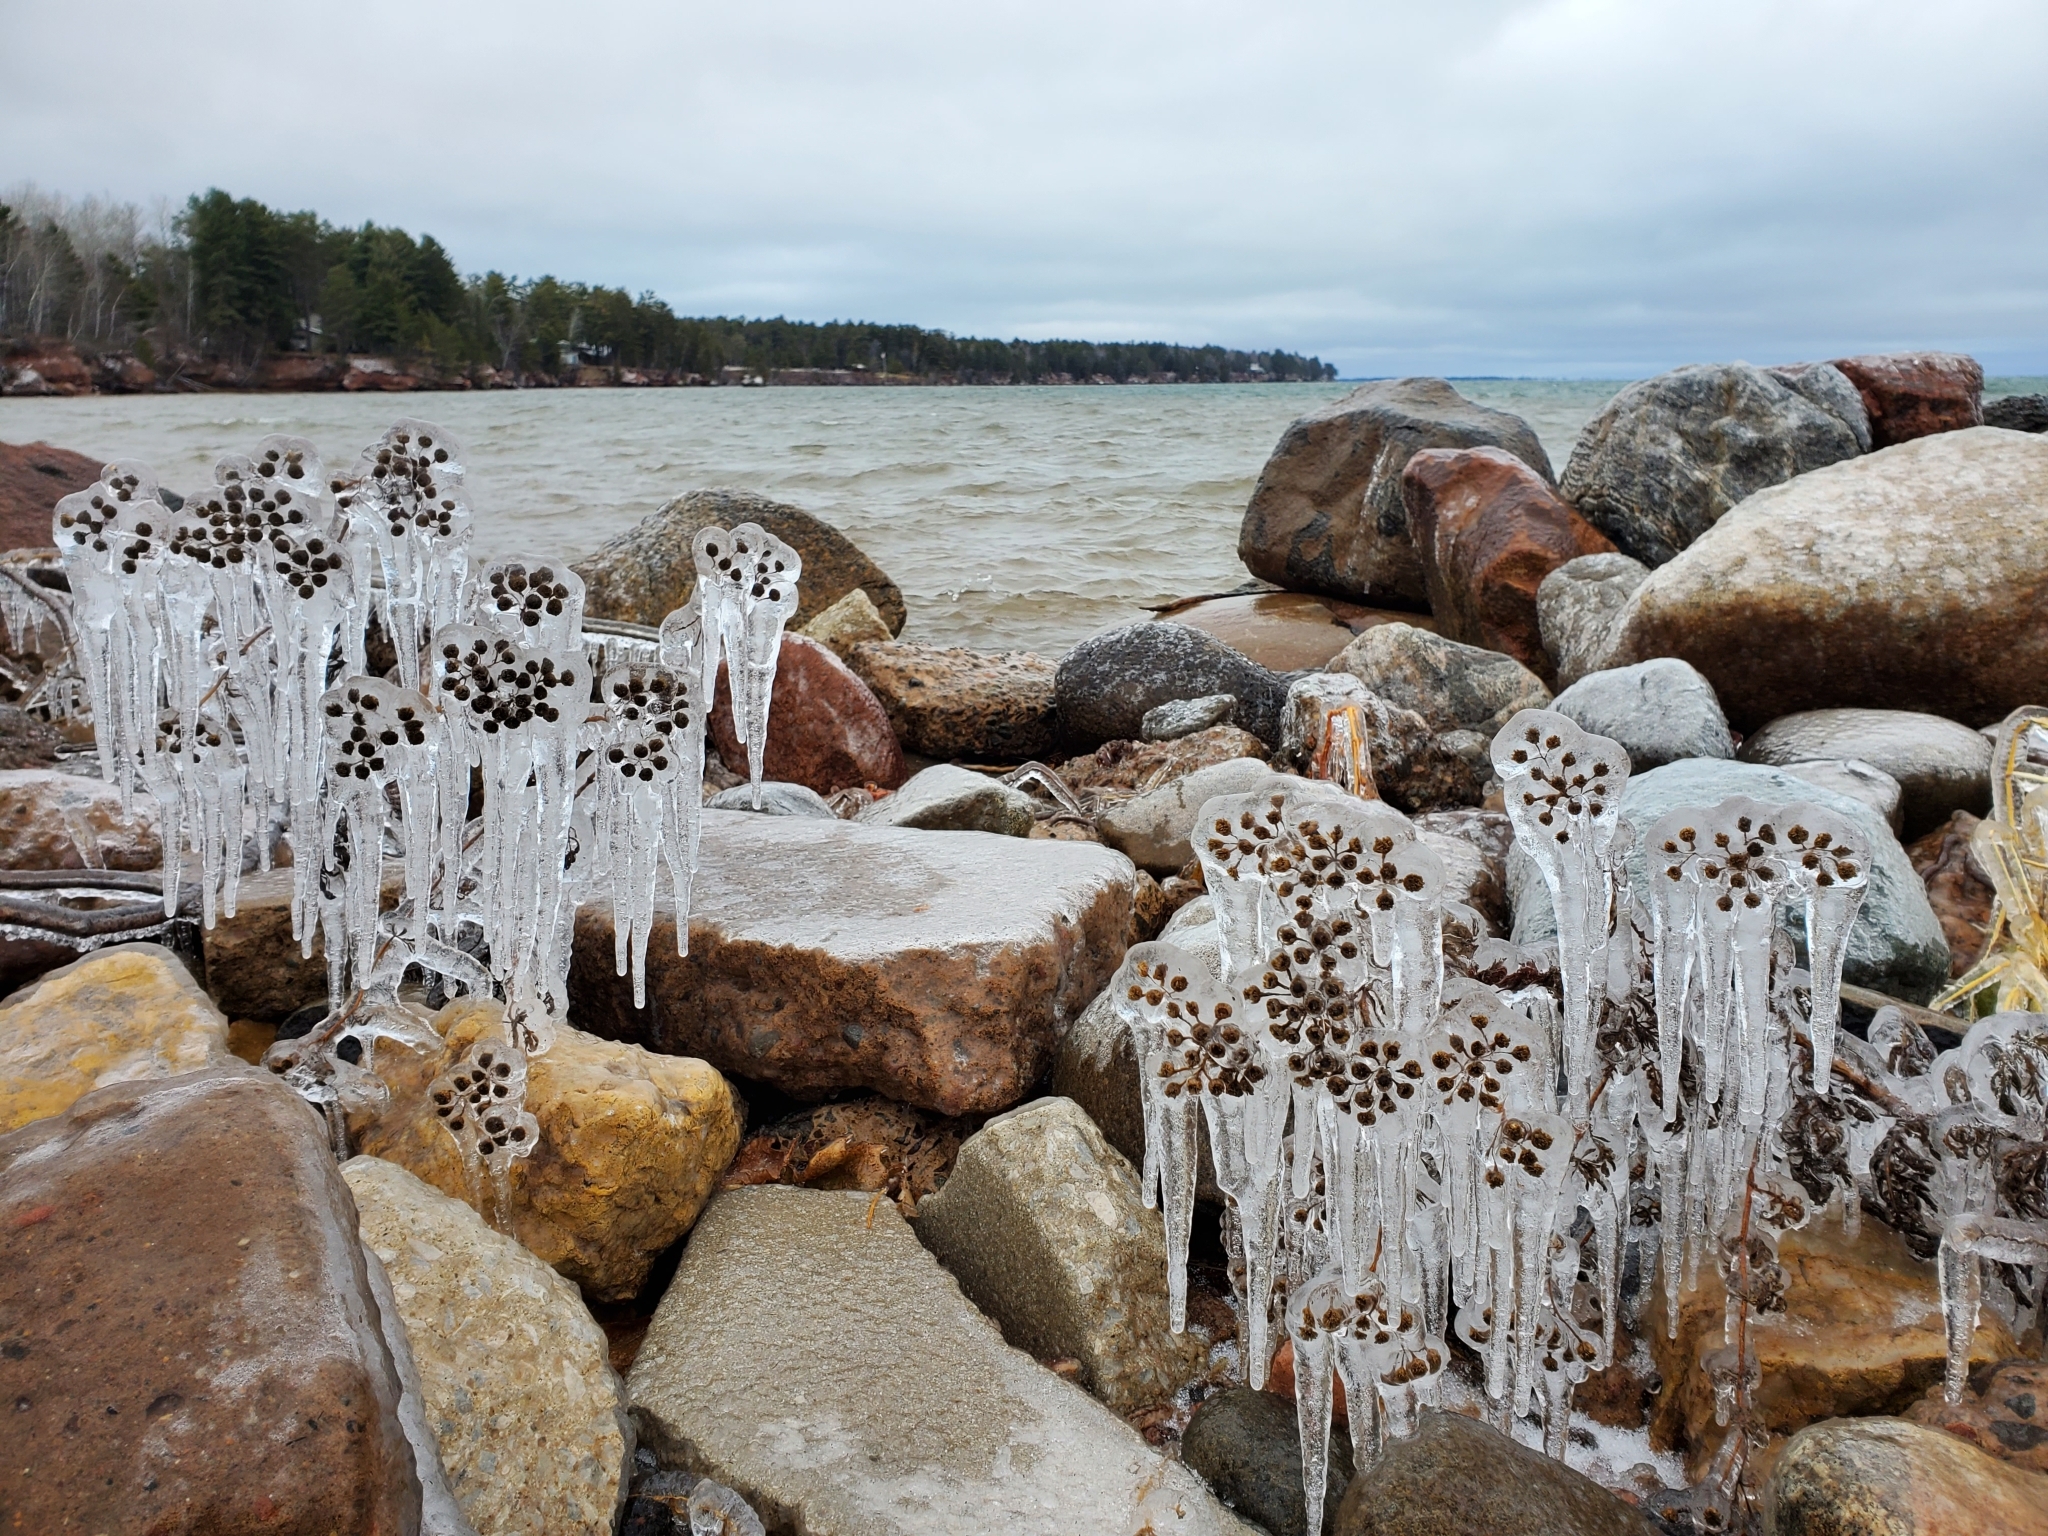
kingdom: Plantae
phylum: Tracheophyta
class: Magnoliopsida
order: Asterales
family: Asteraceae
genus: Tanacetum
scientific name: Tanacetum vulgare
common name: Common tansy
